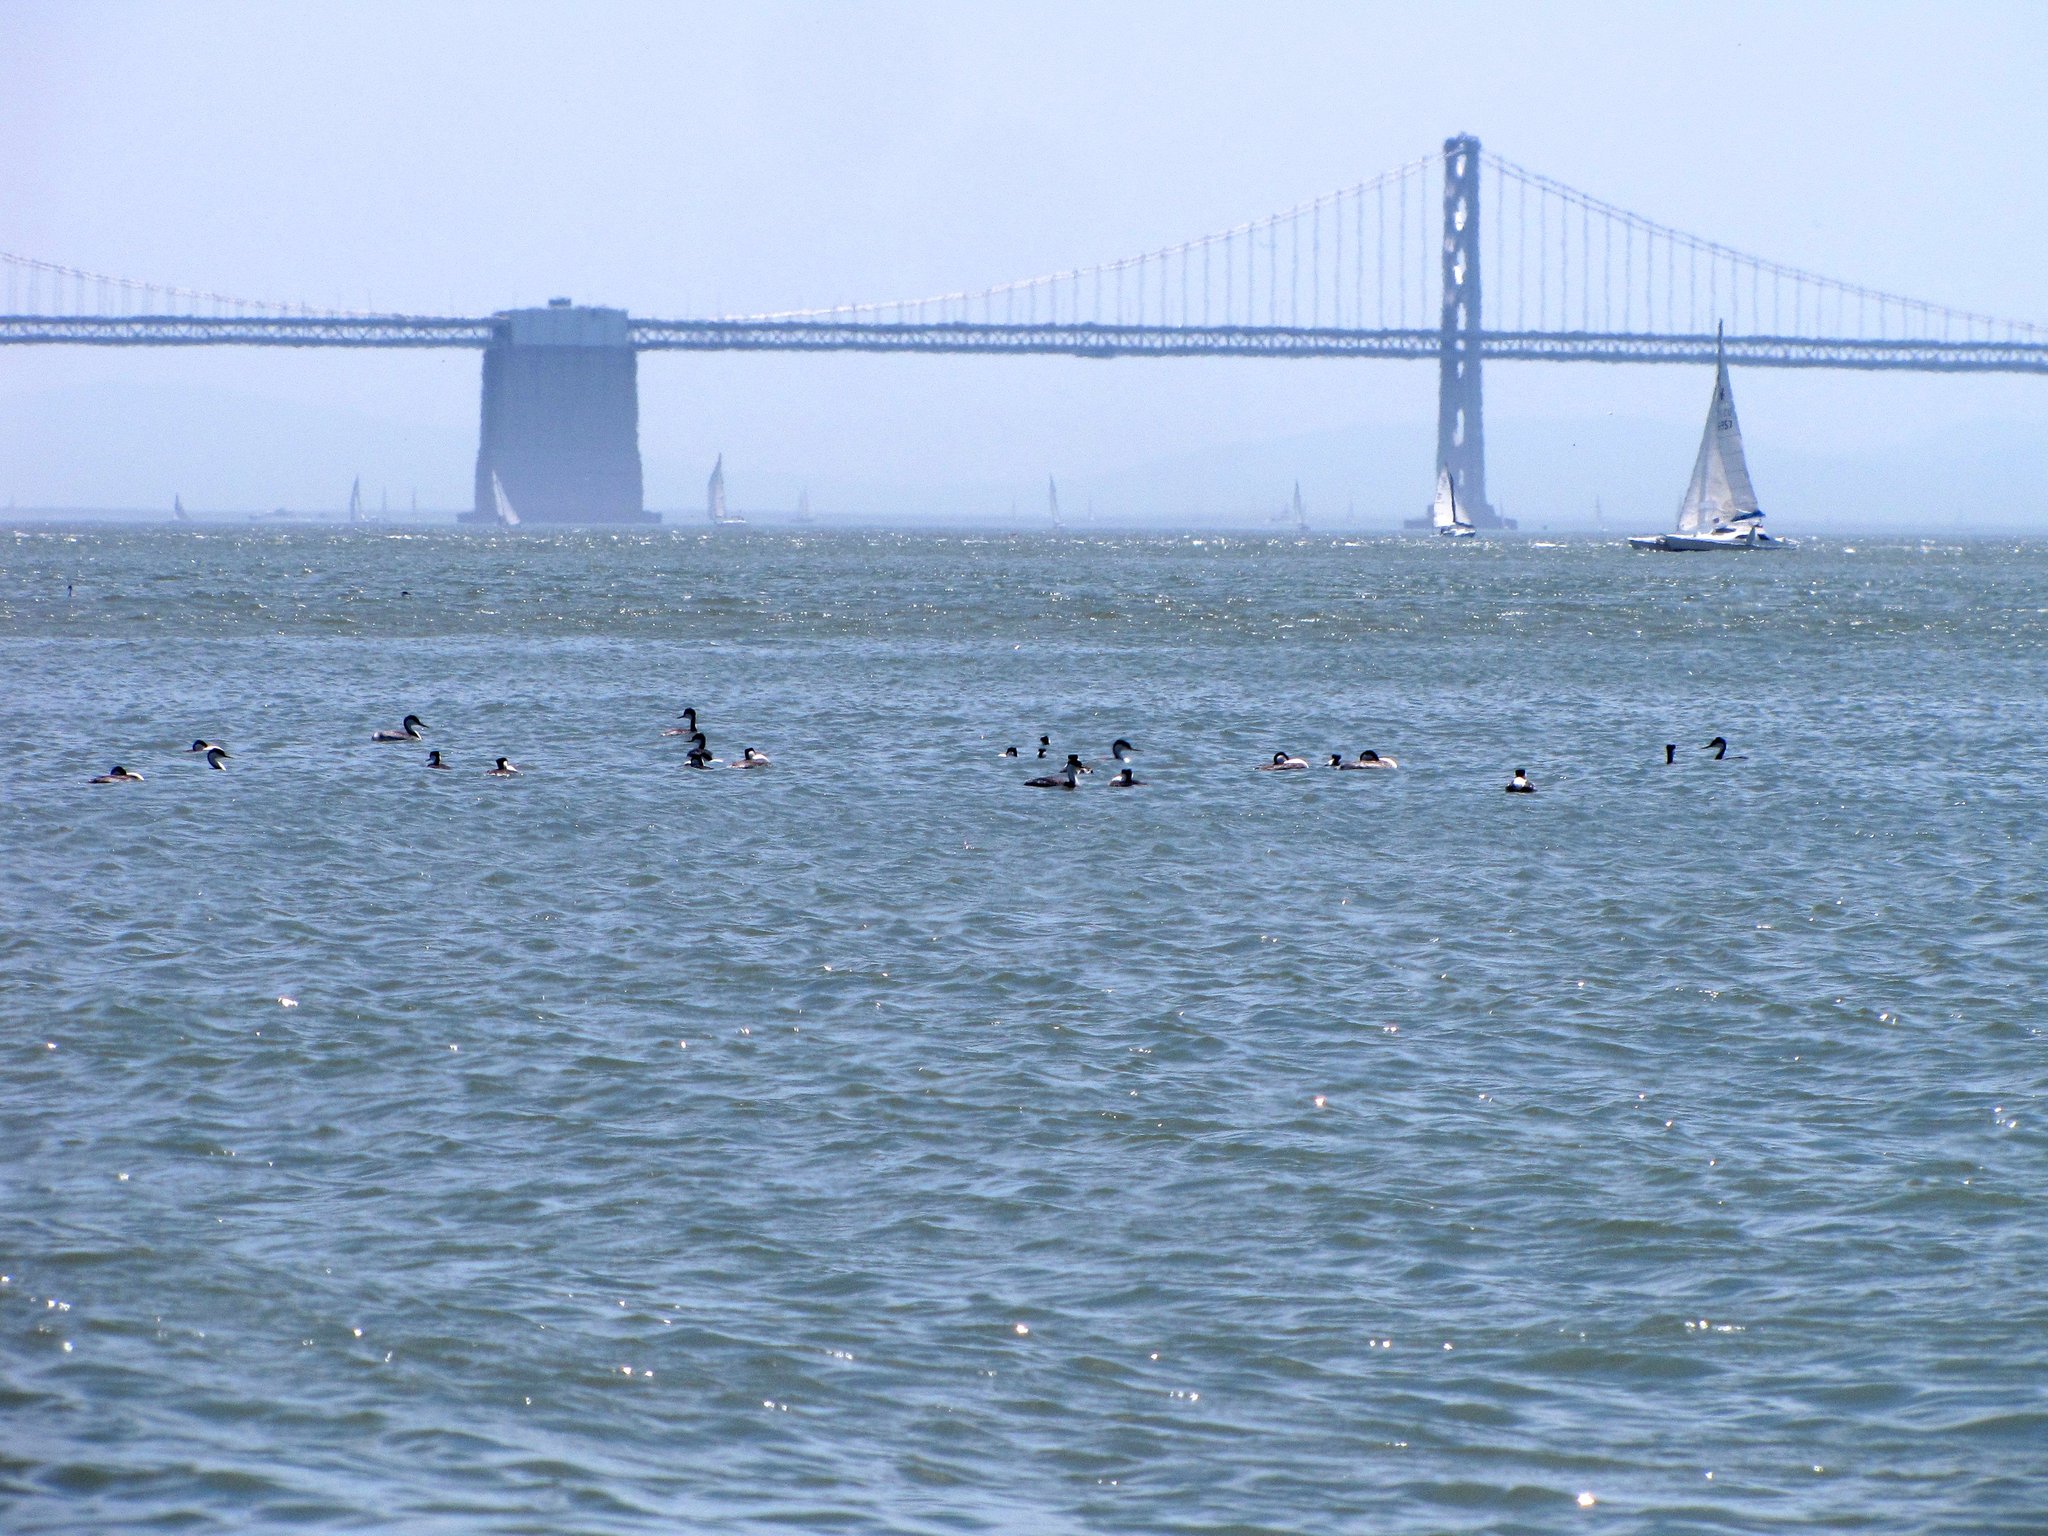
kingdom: Animalia
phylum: Chordata
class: Aves
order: Podicipediformes
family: Podicipedidae
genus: Aechmophorus
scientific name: Aechmophorus occidentalis
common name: Western grebe
